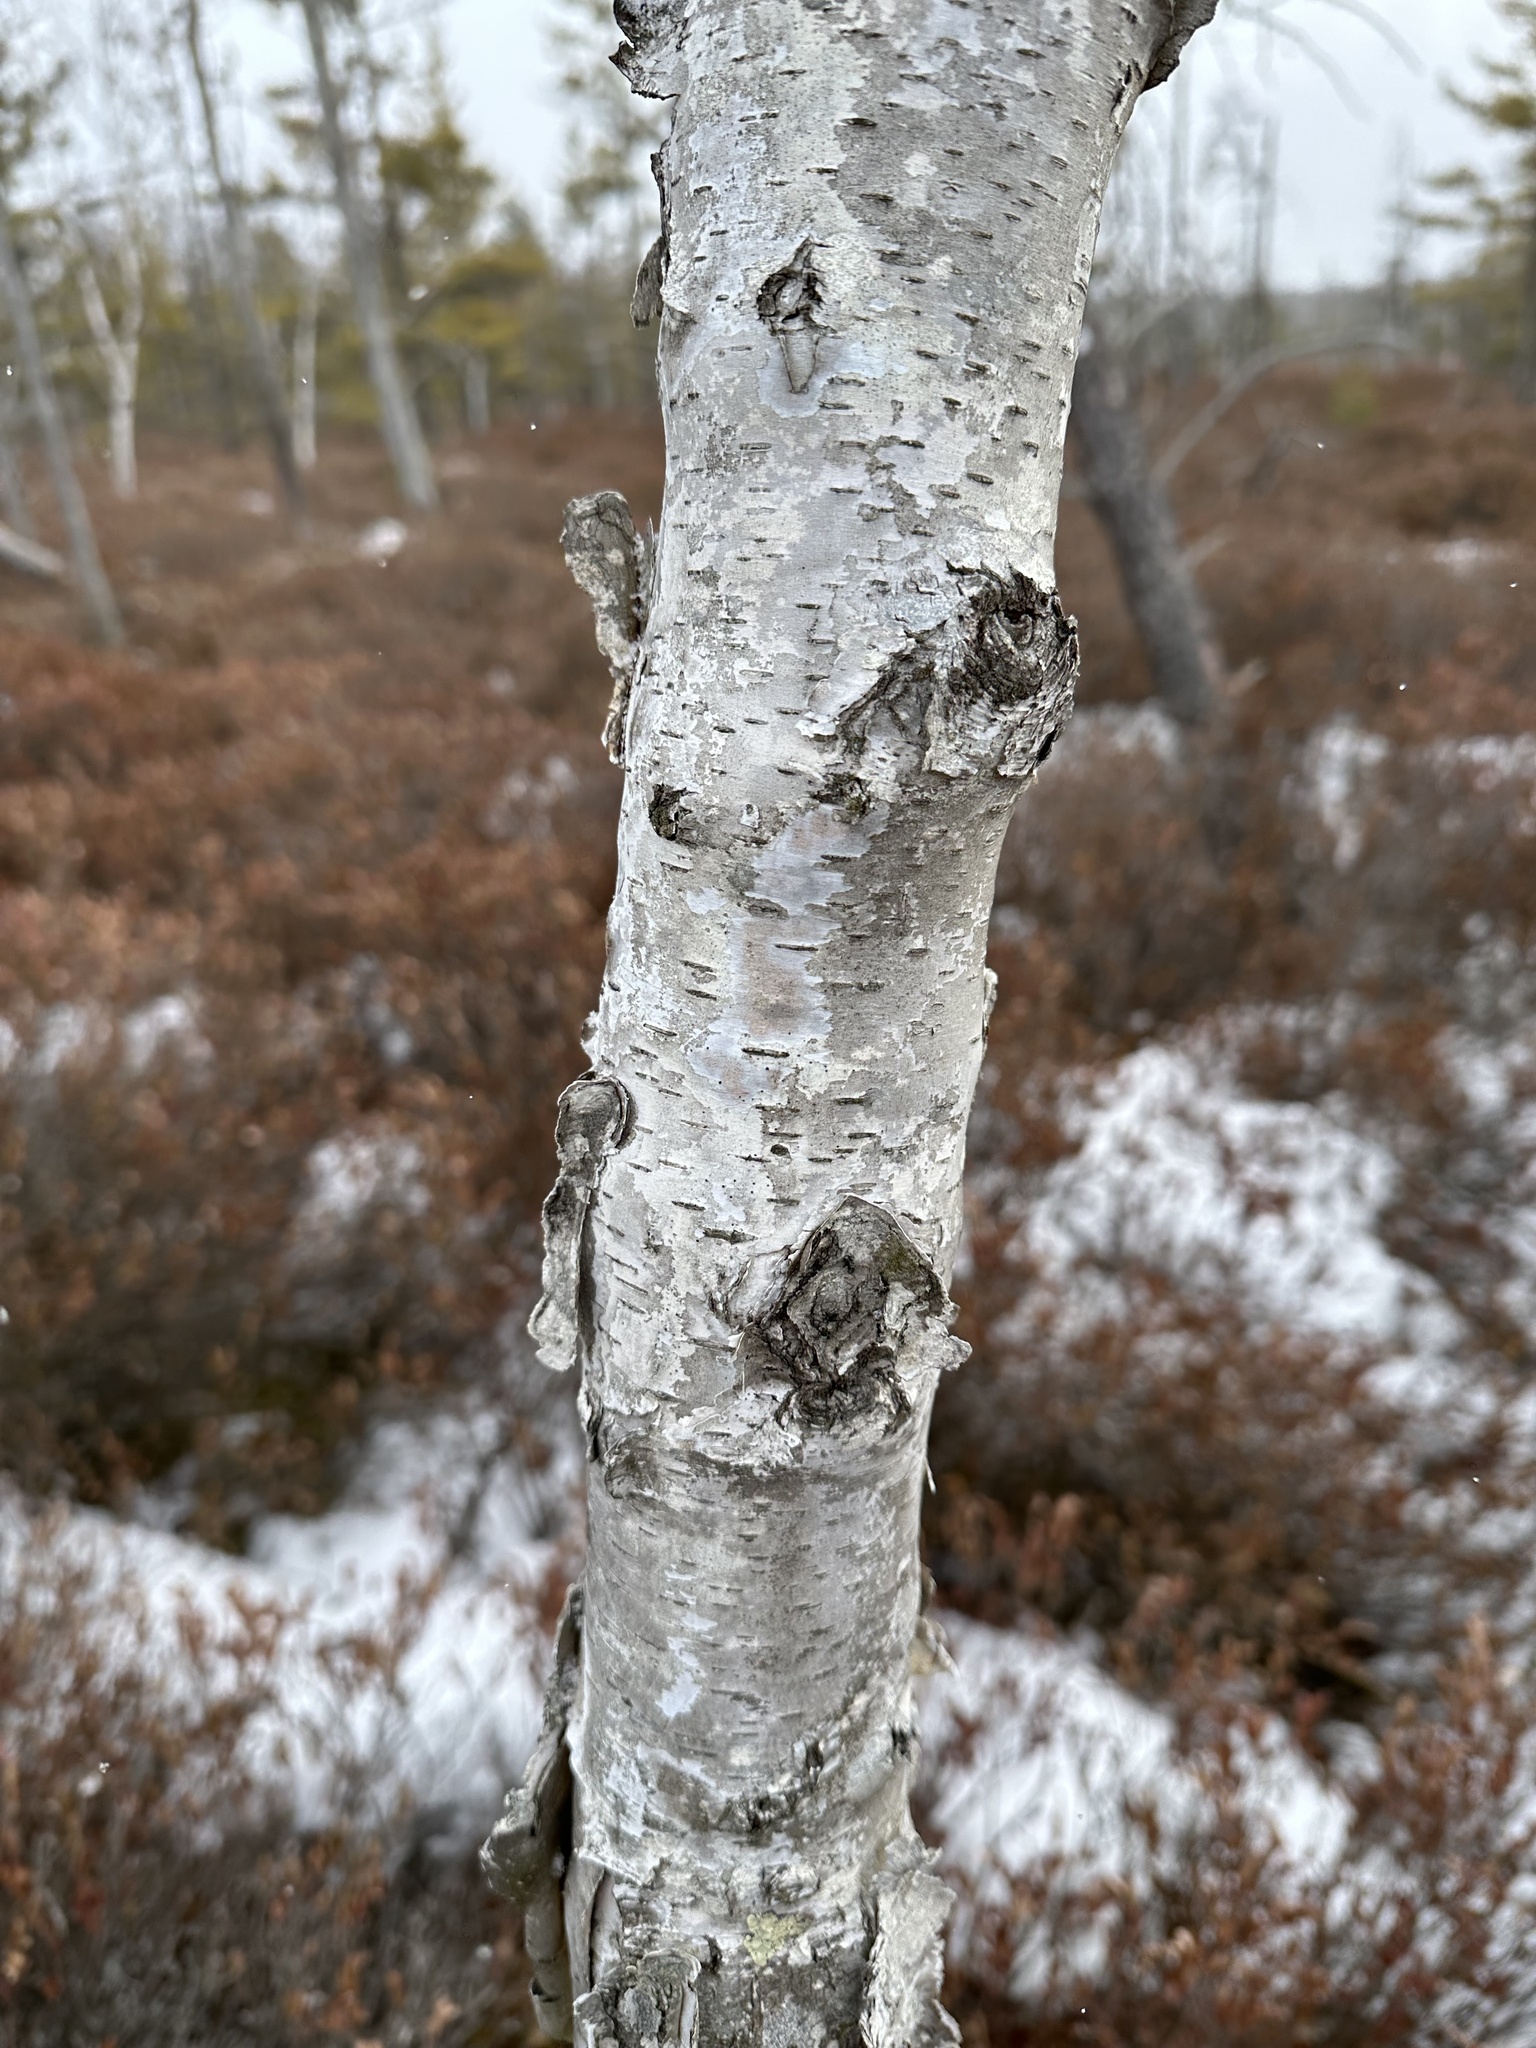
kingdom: Plantae
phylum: Tracheophyta
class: Magnoliopsida
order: Fagales
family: Betulaceae
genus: Betula
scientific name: Betula papyrifera
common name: Paper birch
